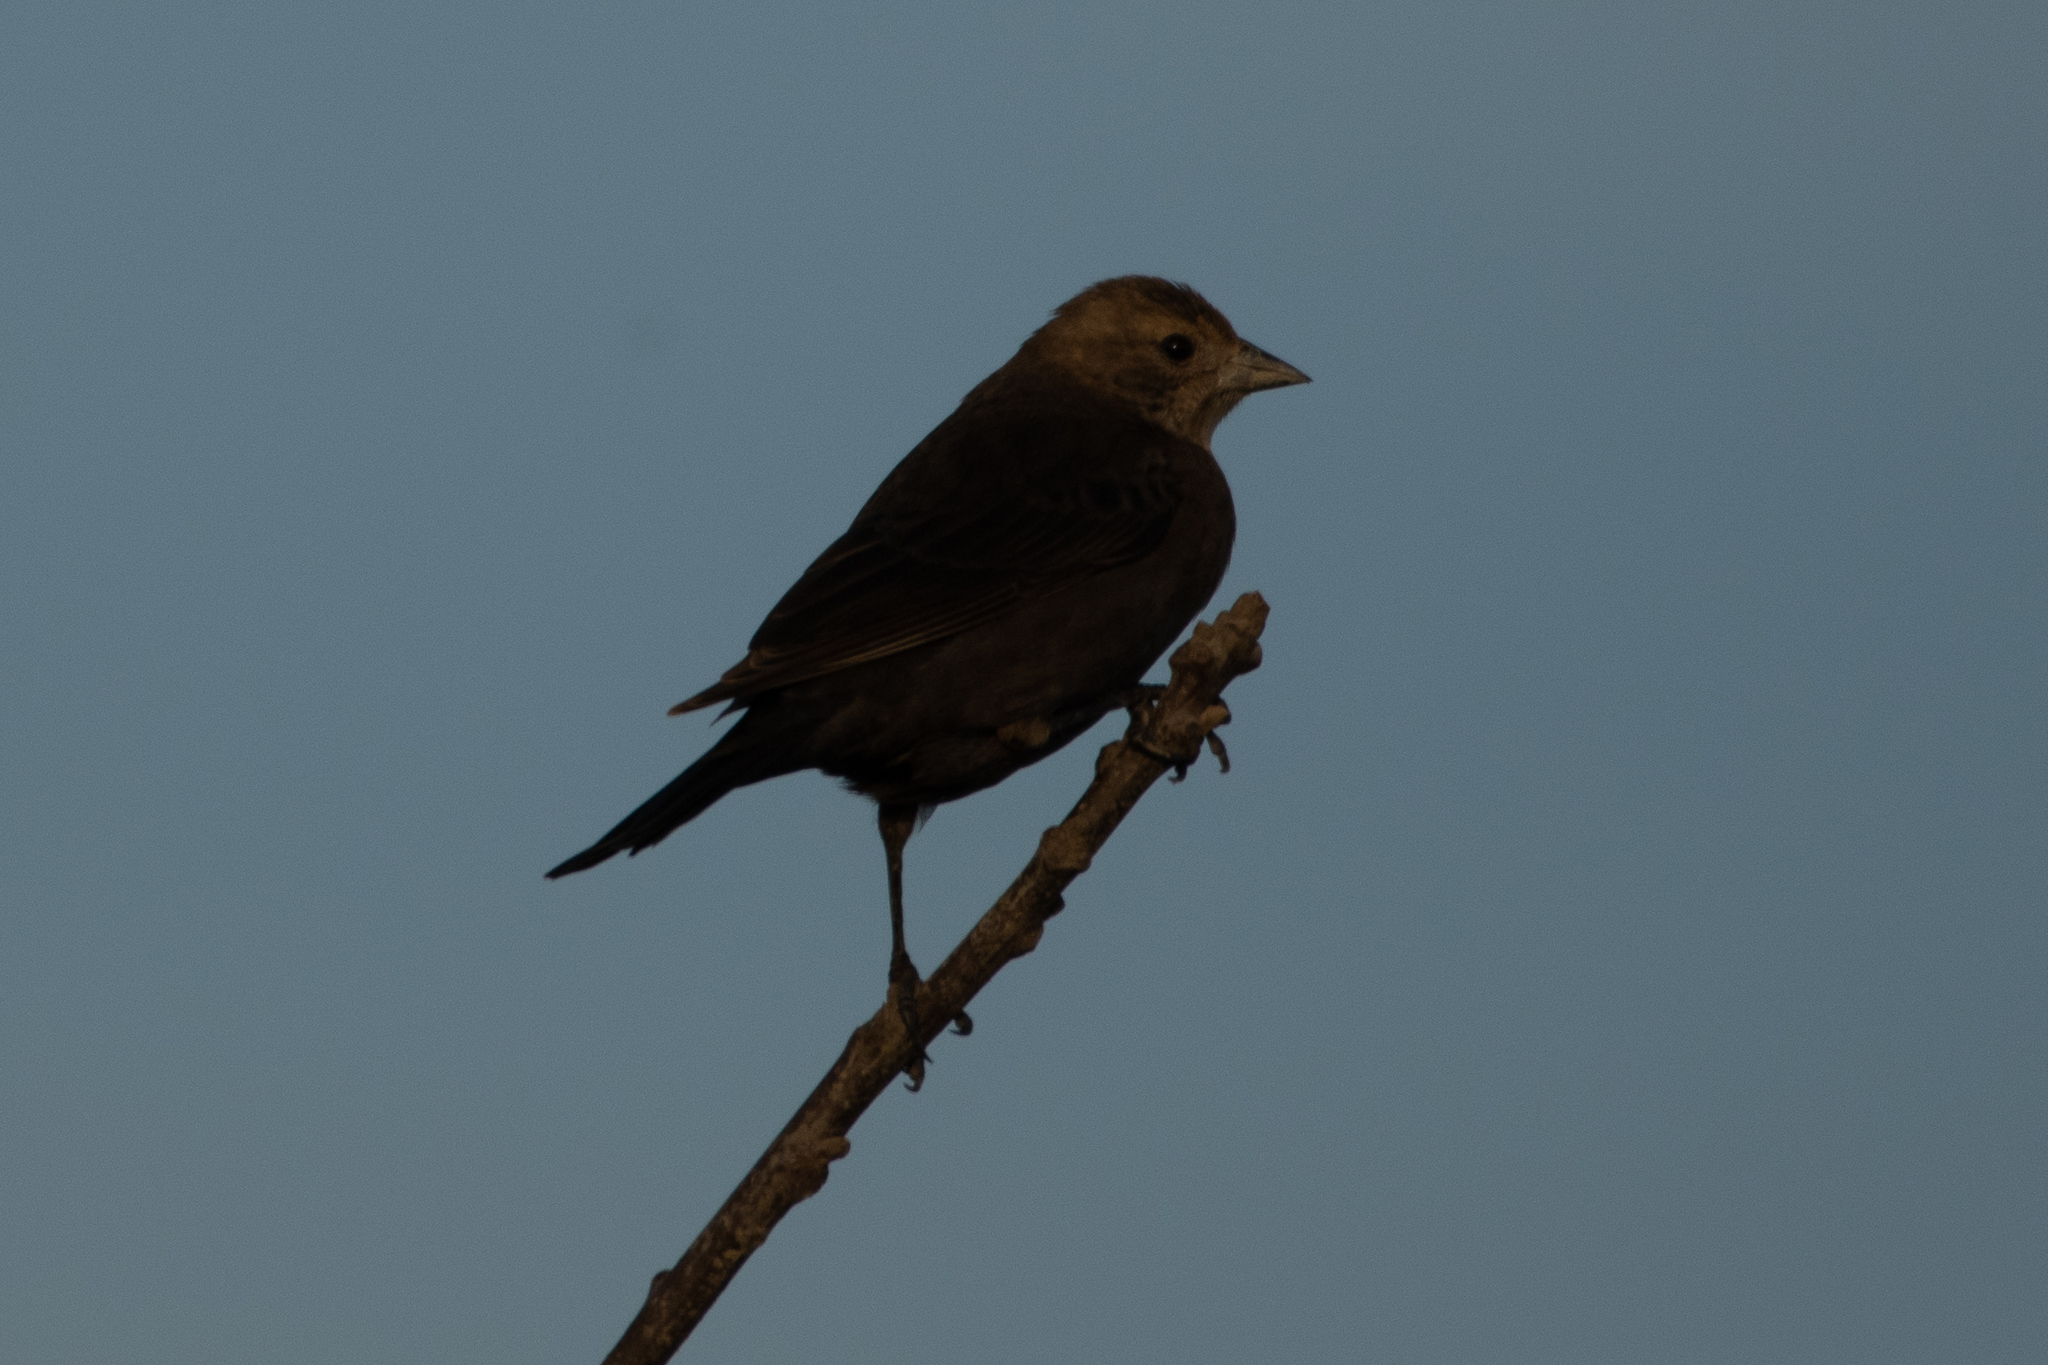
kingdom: Animalia
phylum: Chordata
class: Aves
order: Passeriformes
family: Icteridae
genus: Molothrus
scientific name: Molothrus ater
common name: Brown-headed cowbird
